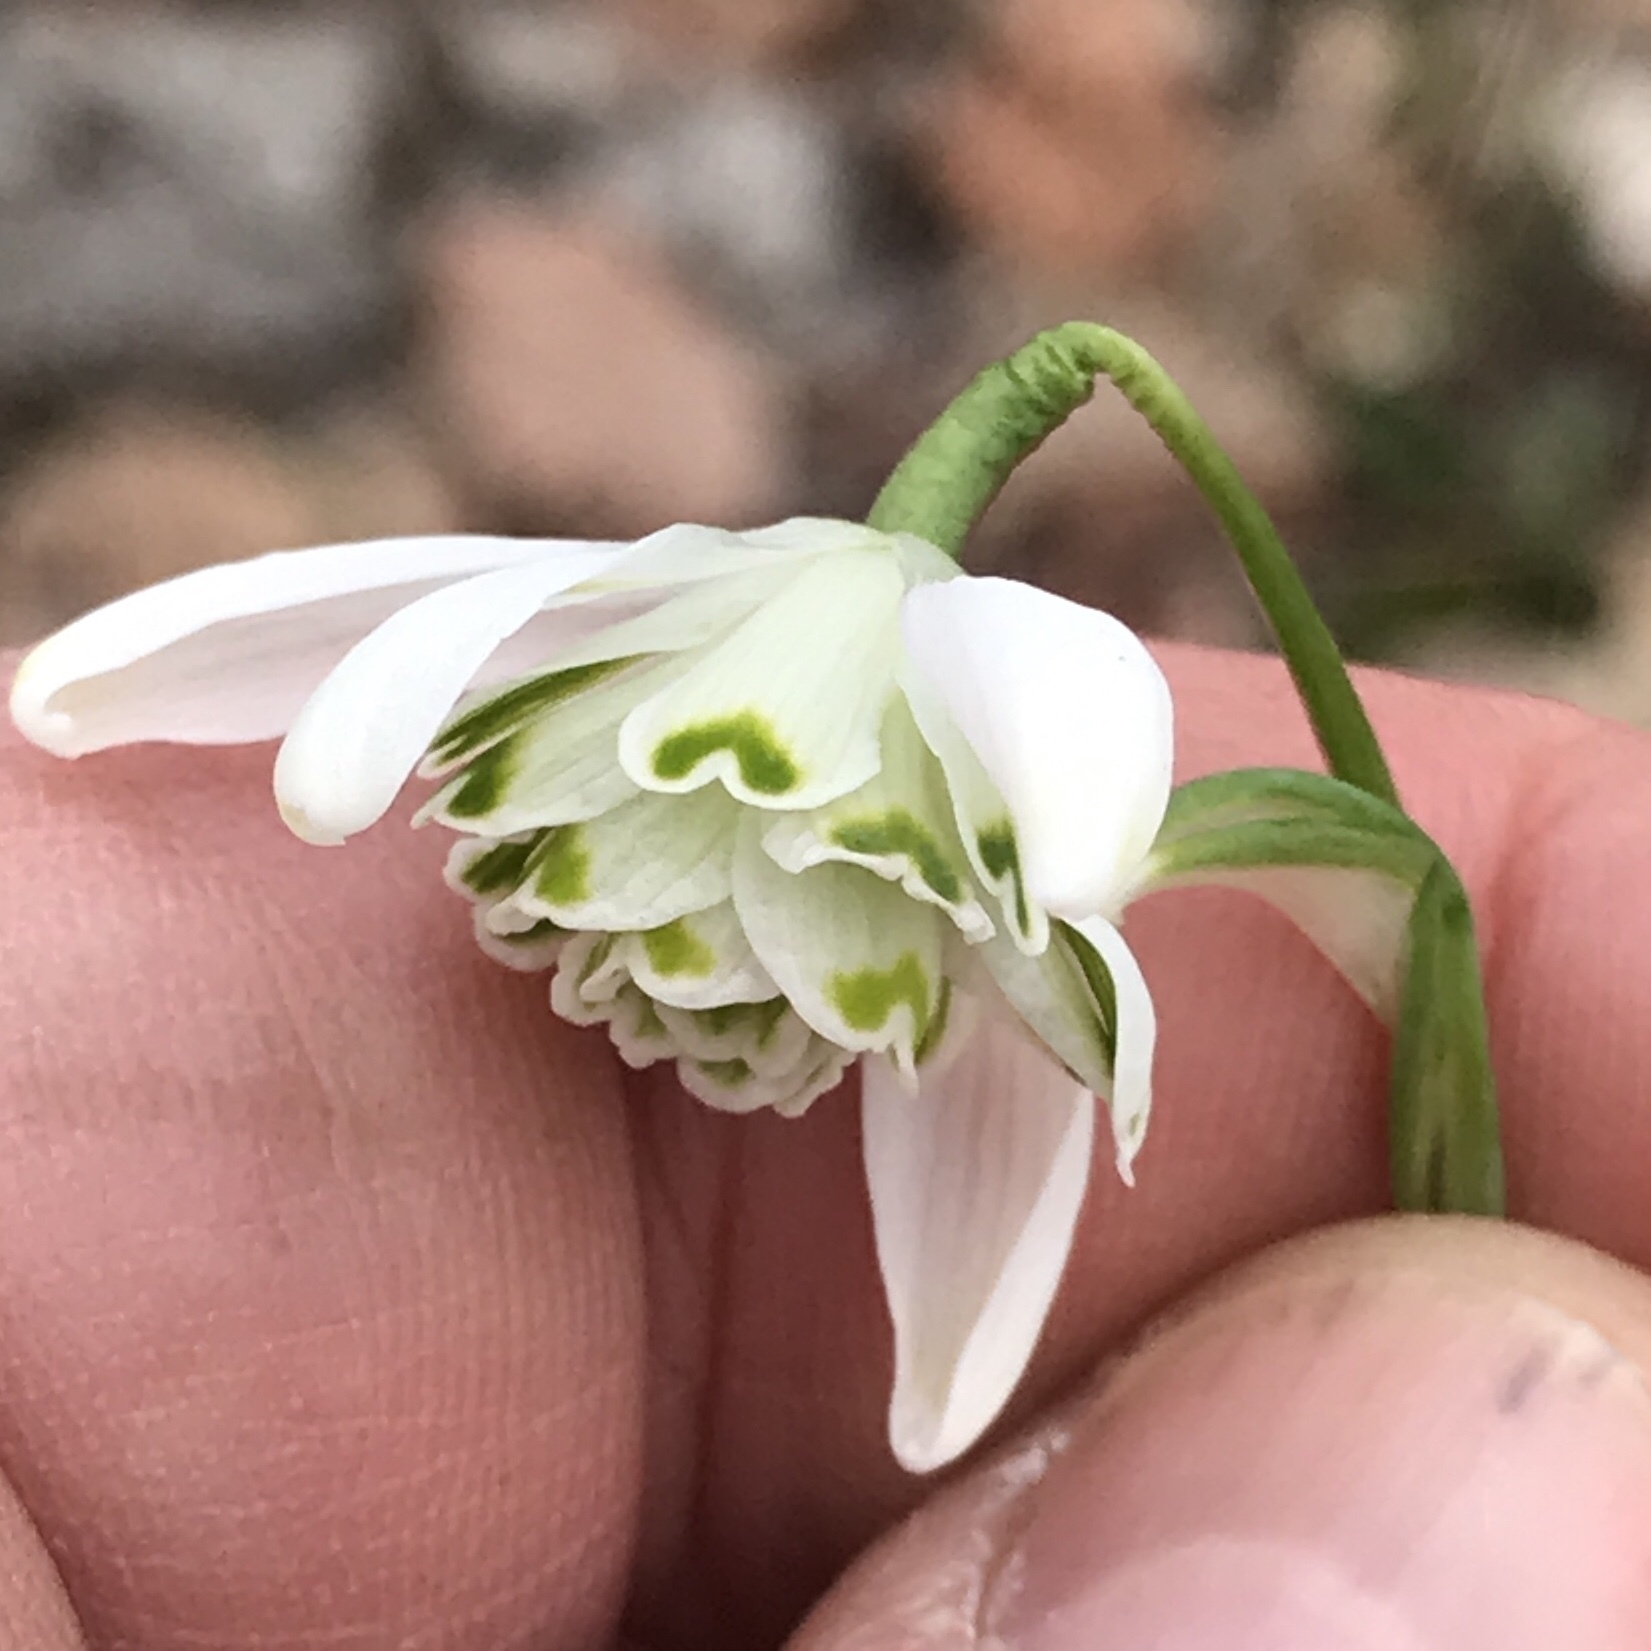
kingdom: Plantae
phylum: Tracheophyta
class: Liliopsida
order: Asparagales
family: Amaryllidaceae
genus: Galanthus
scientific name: Galanthus nivalis
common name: Snowdrop
